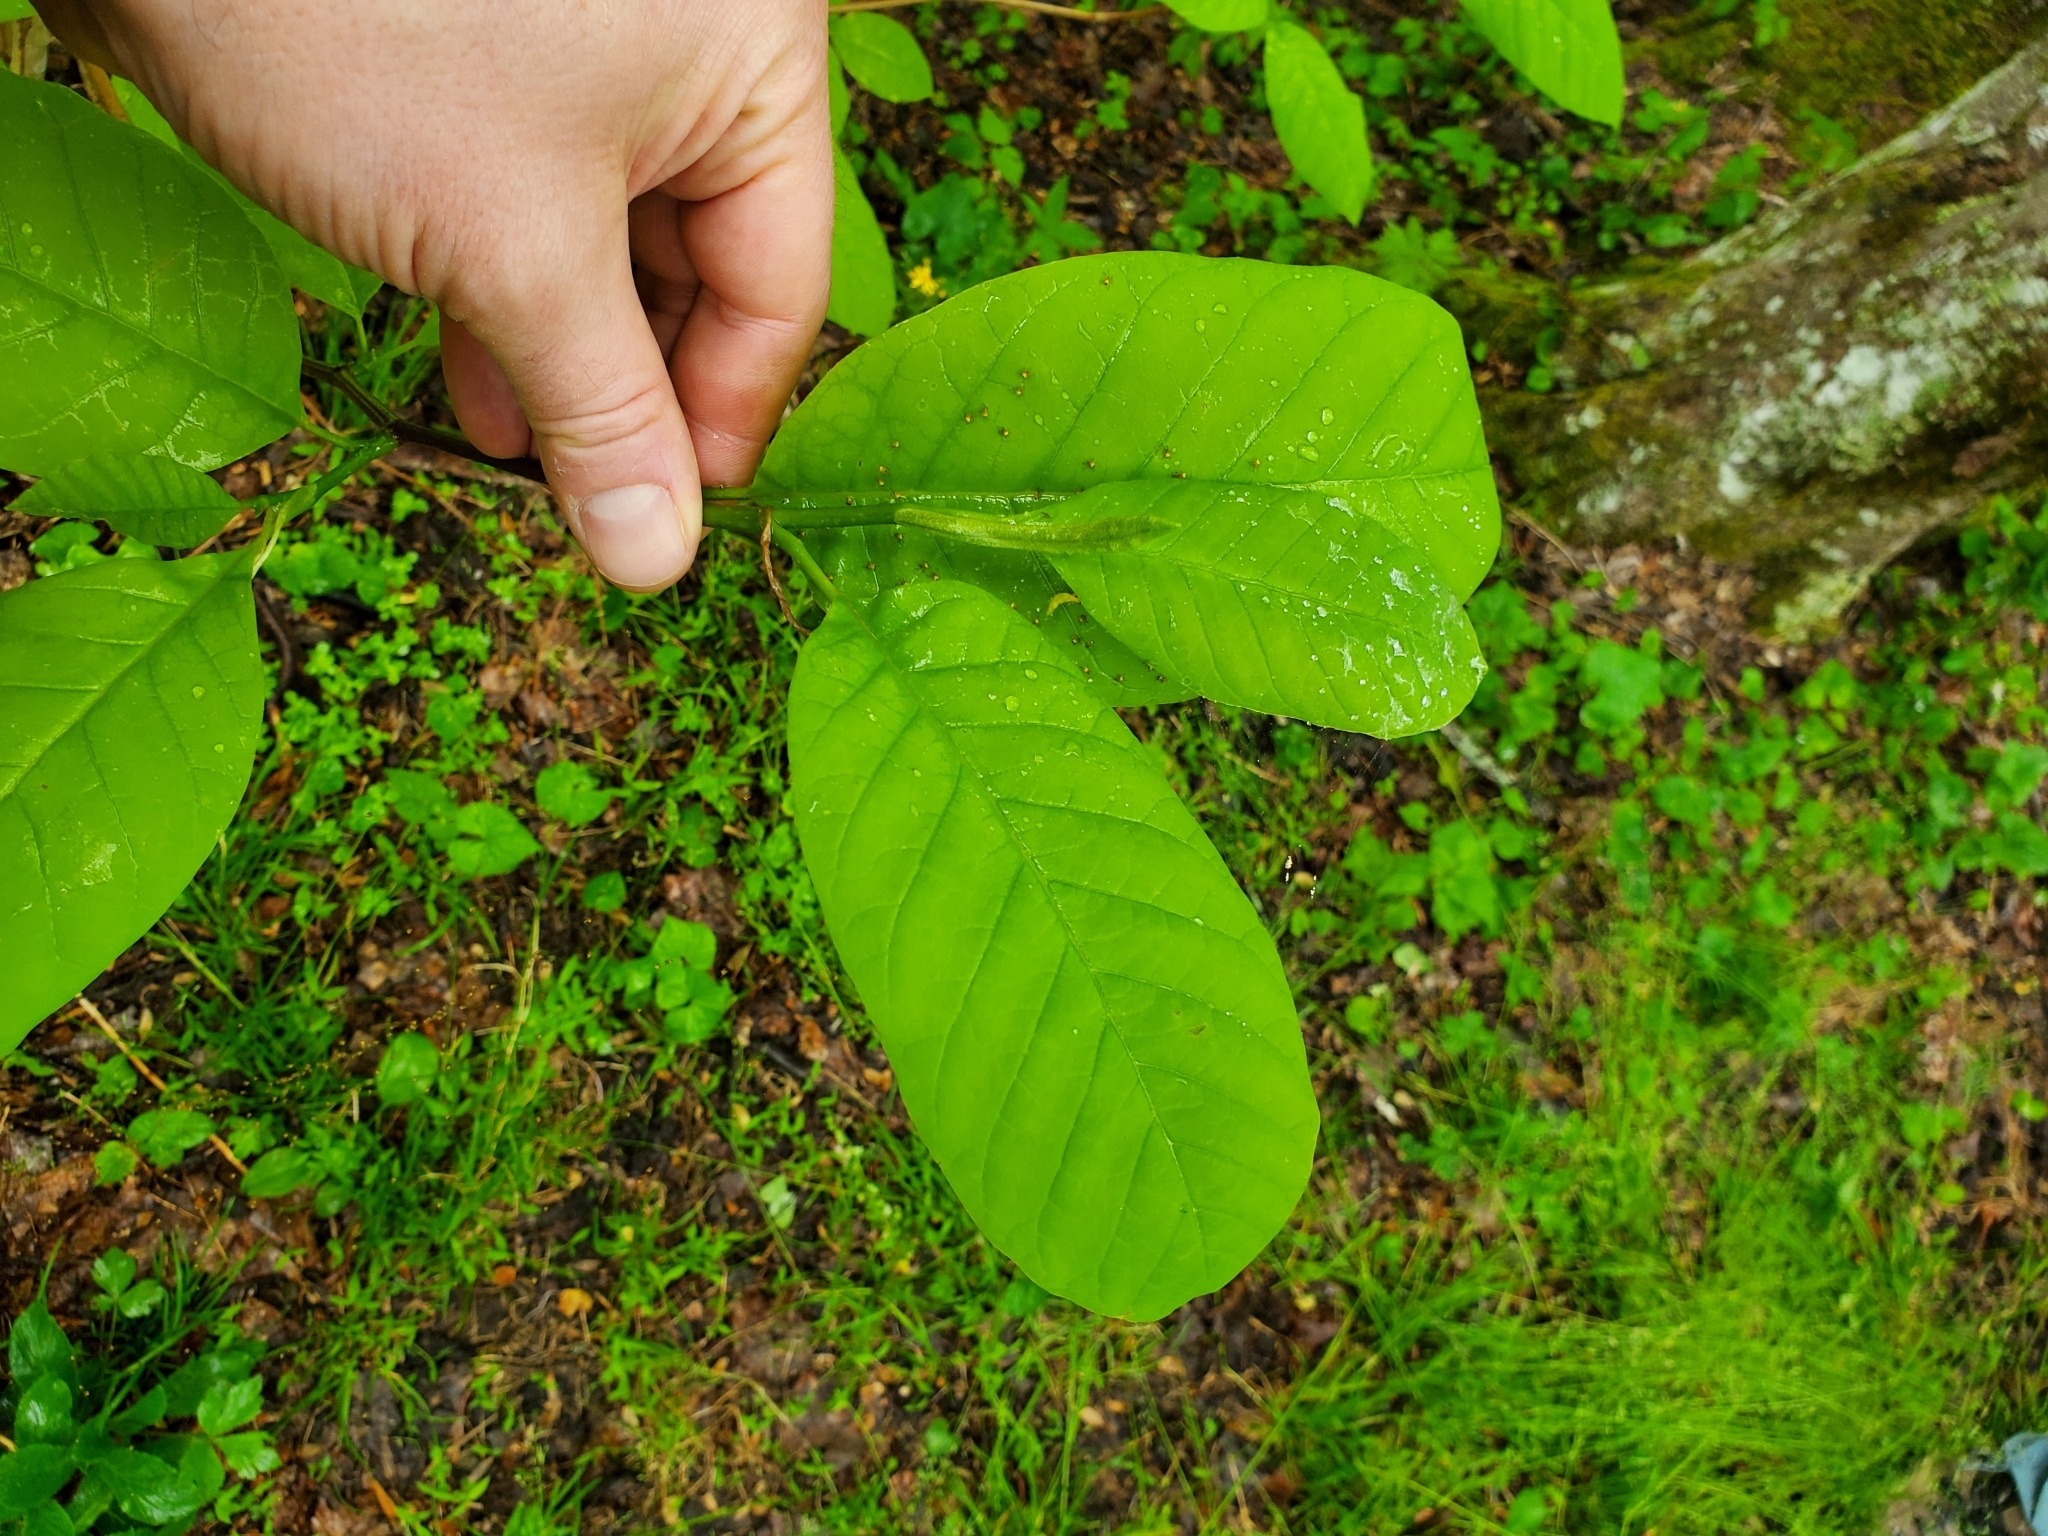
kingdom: Plantae
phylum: Tracheophyta
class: Magnoliopsida
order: Magnoliales
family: Magnoliaceae
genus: Magnolia
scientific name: Magnolia acuminata
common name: Cucumber magnolia
